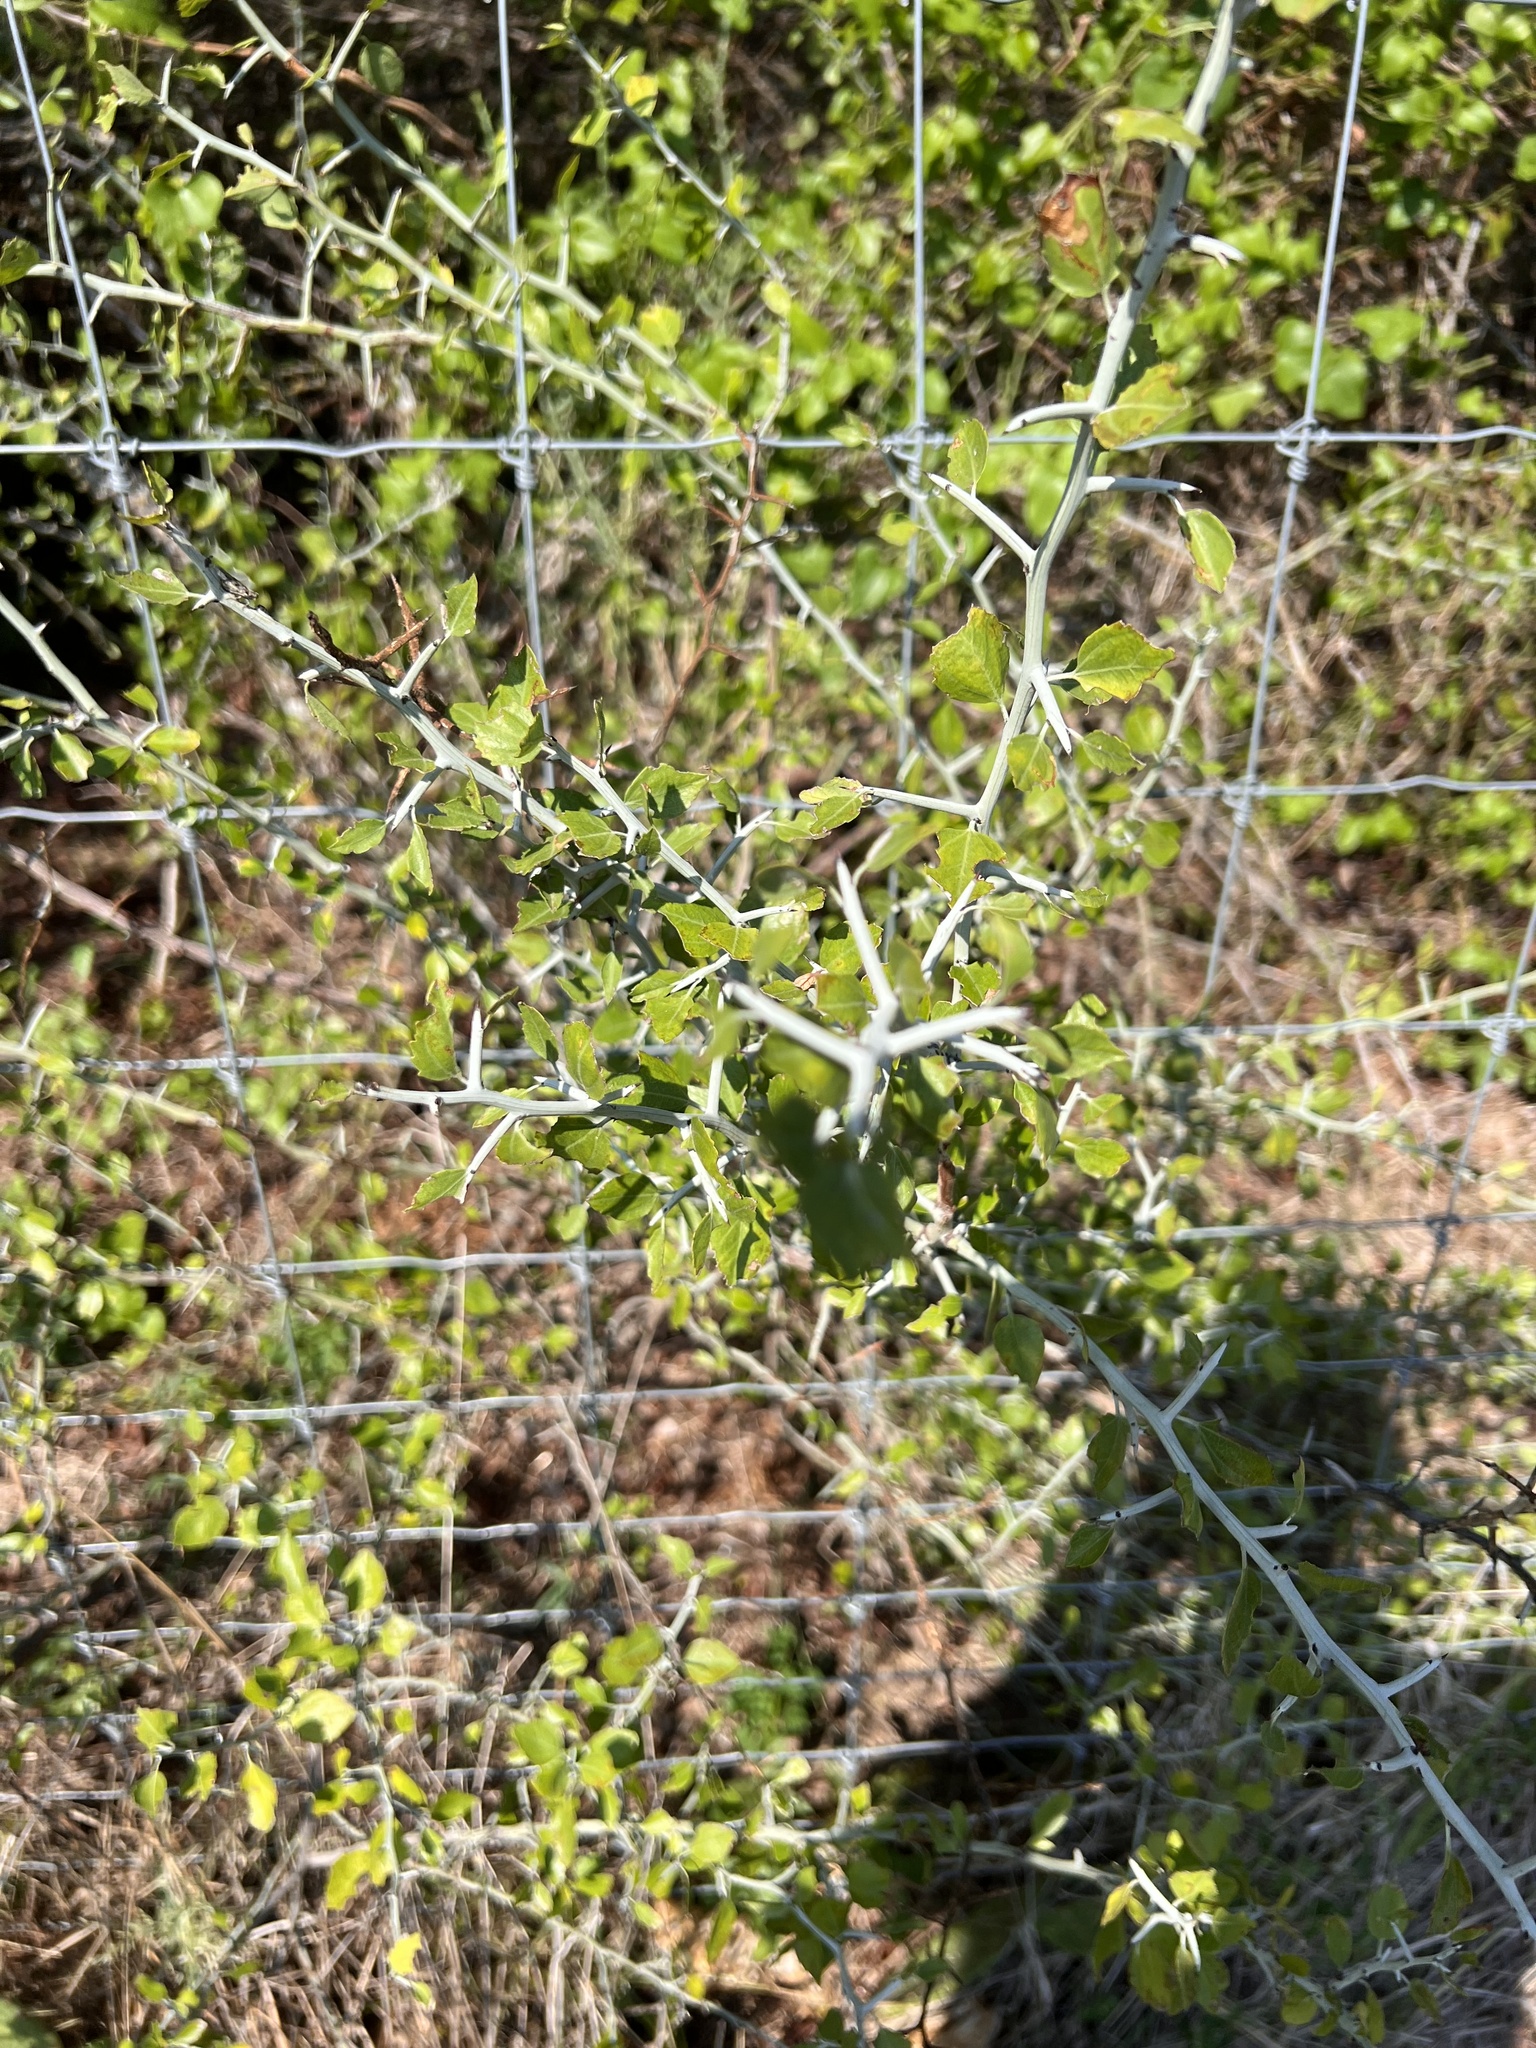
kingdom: Plantae
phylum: Tracheophyta
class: Magnoliopsida
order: Rosales
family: Rhamnaceae
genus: Sarcomphalus
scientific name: Sarcomphalus obtusifolius
